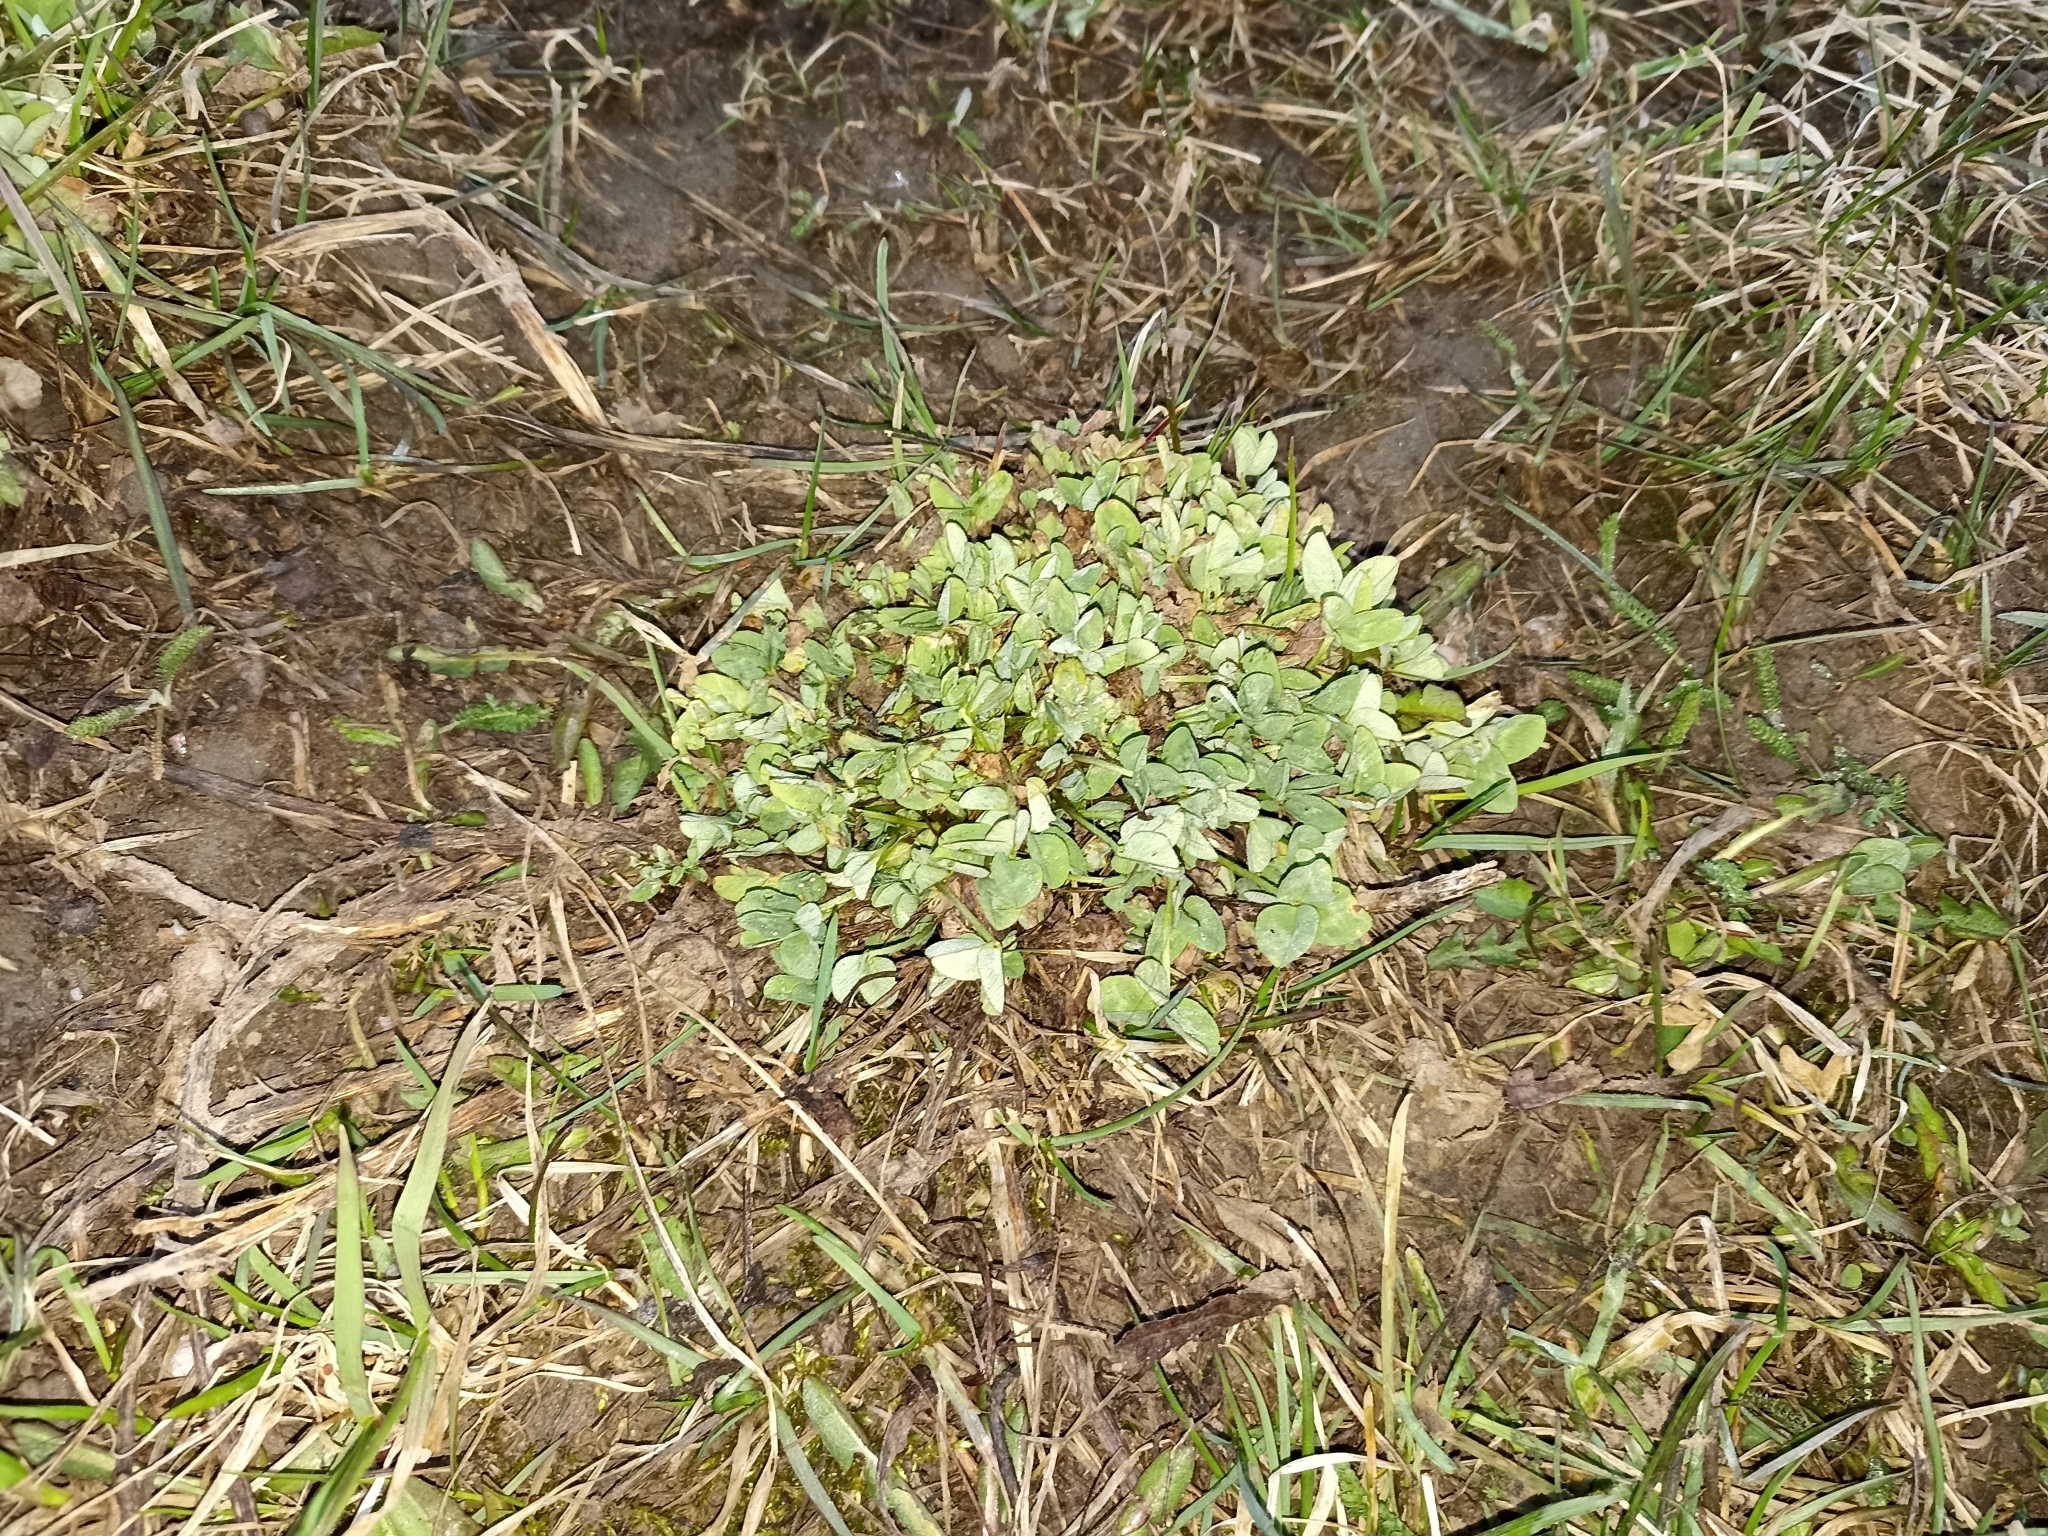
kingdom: Plantae
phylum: Tracheophyta
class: Magnoliopsida
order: Fabales
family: Fabaceae
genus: Trifolium
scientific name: Trifolium pratense
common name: Red clover
